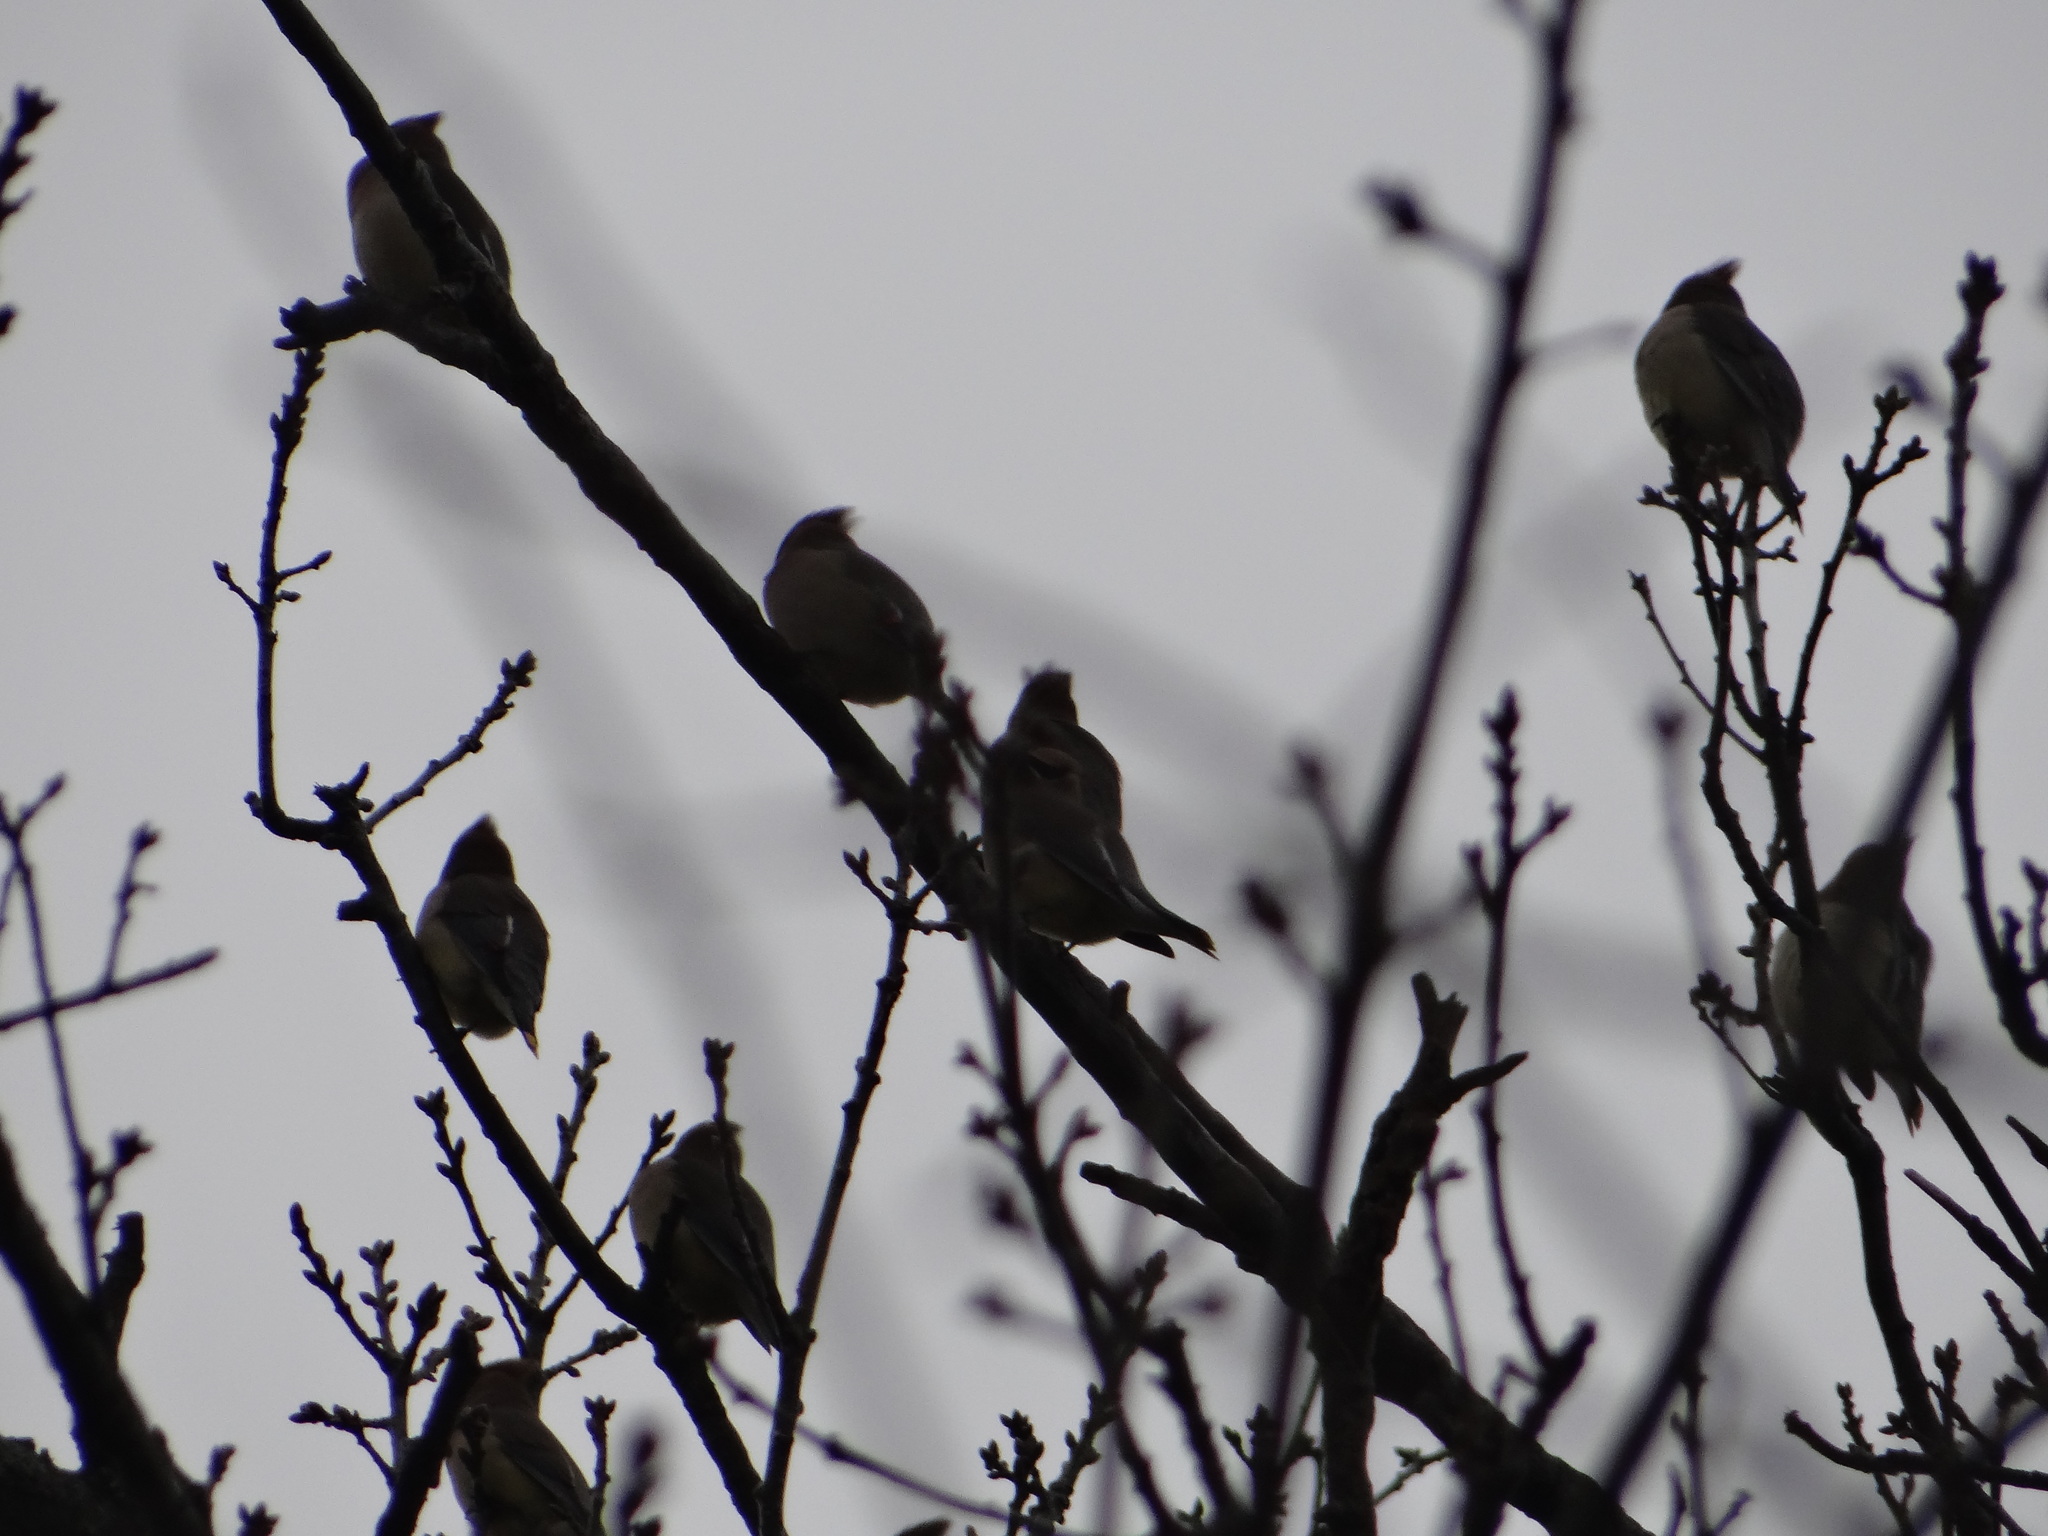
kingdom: Animalia
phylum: Chordata
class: Aves
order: Passeriformes
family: Bombycillidae
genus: Bombycilla
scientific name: Bombycilla cedrorum
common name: Cedar waxwing
